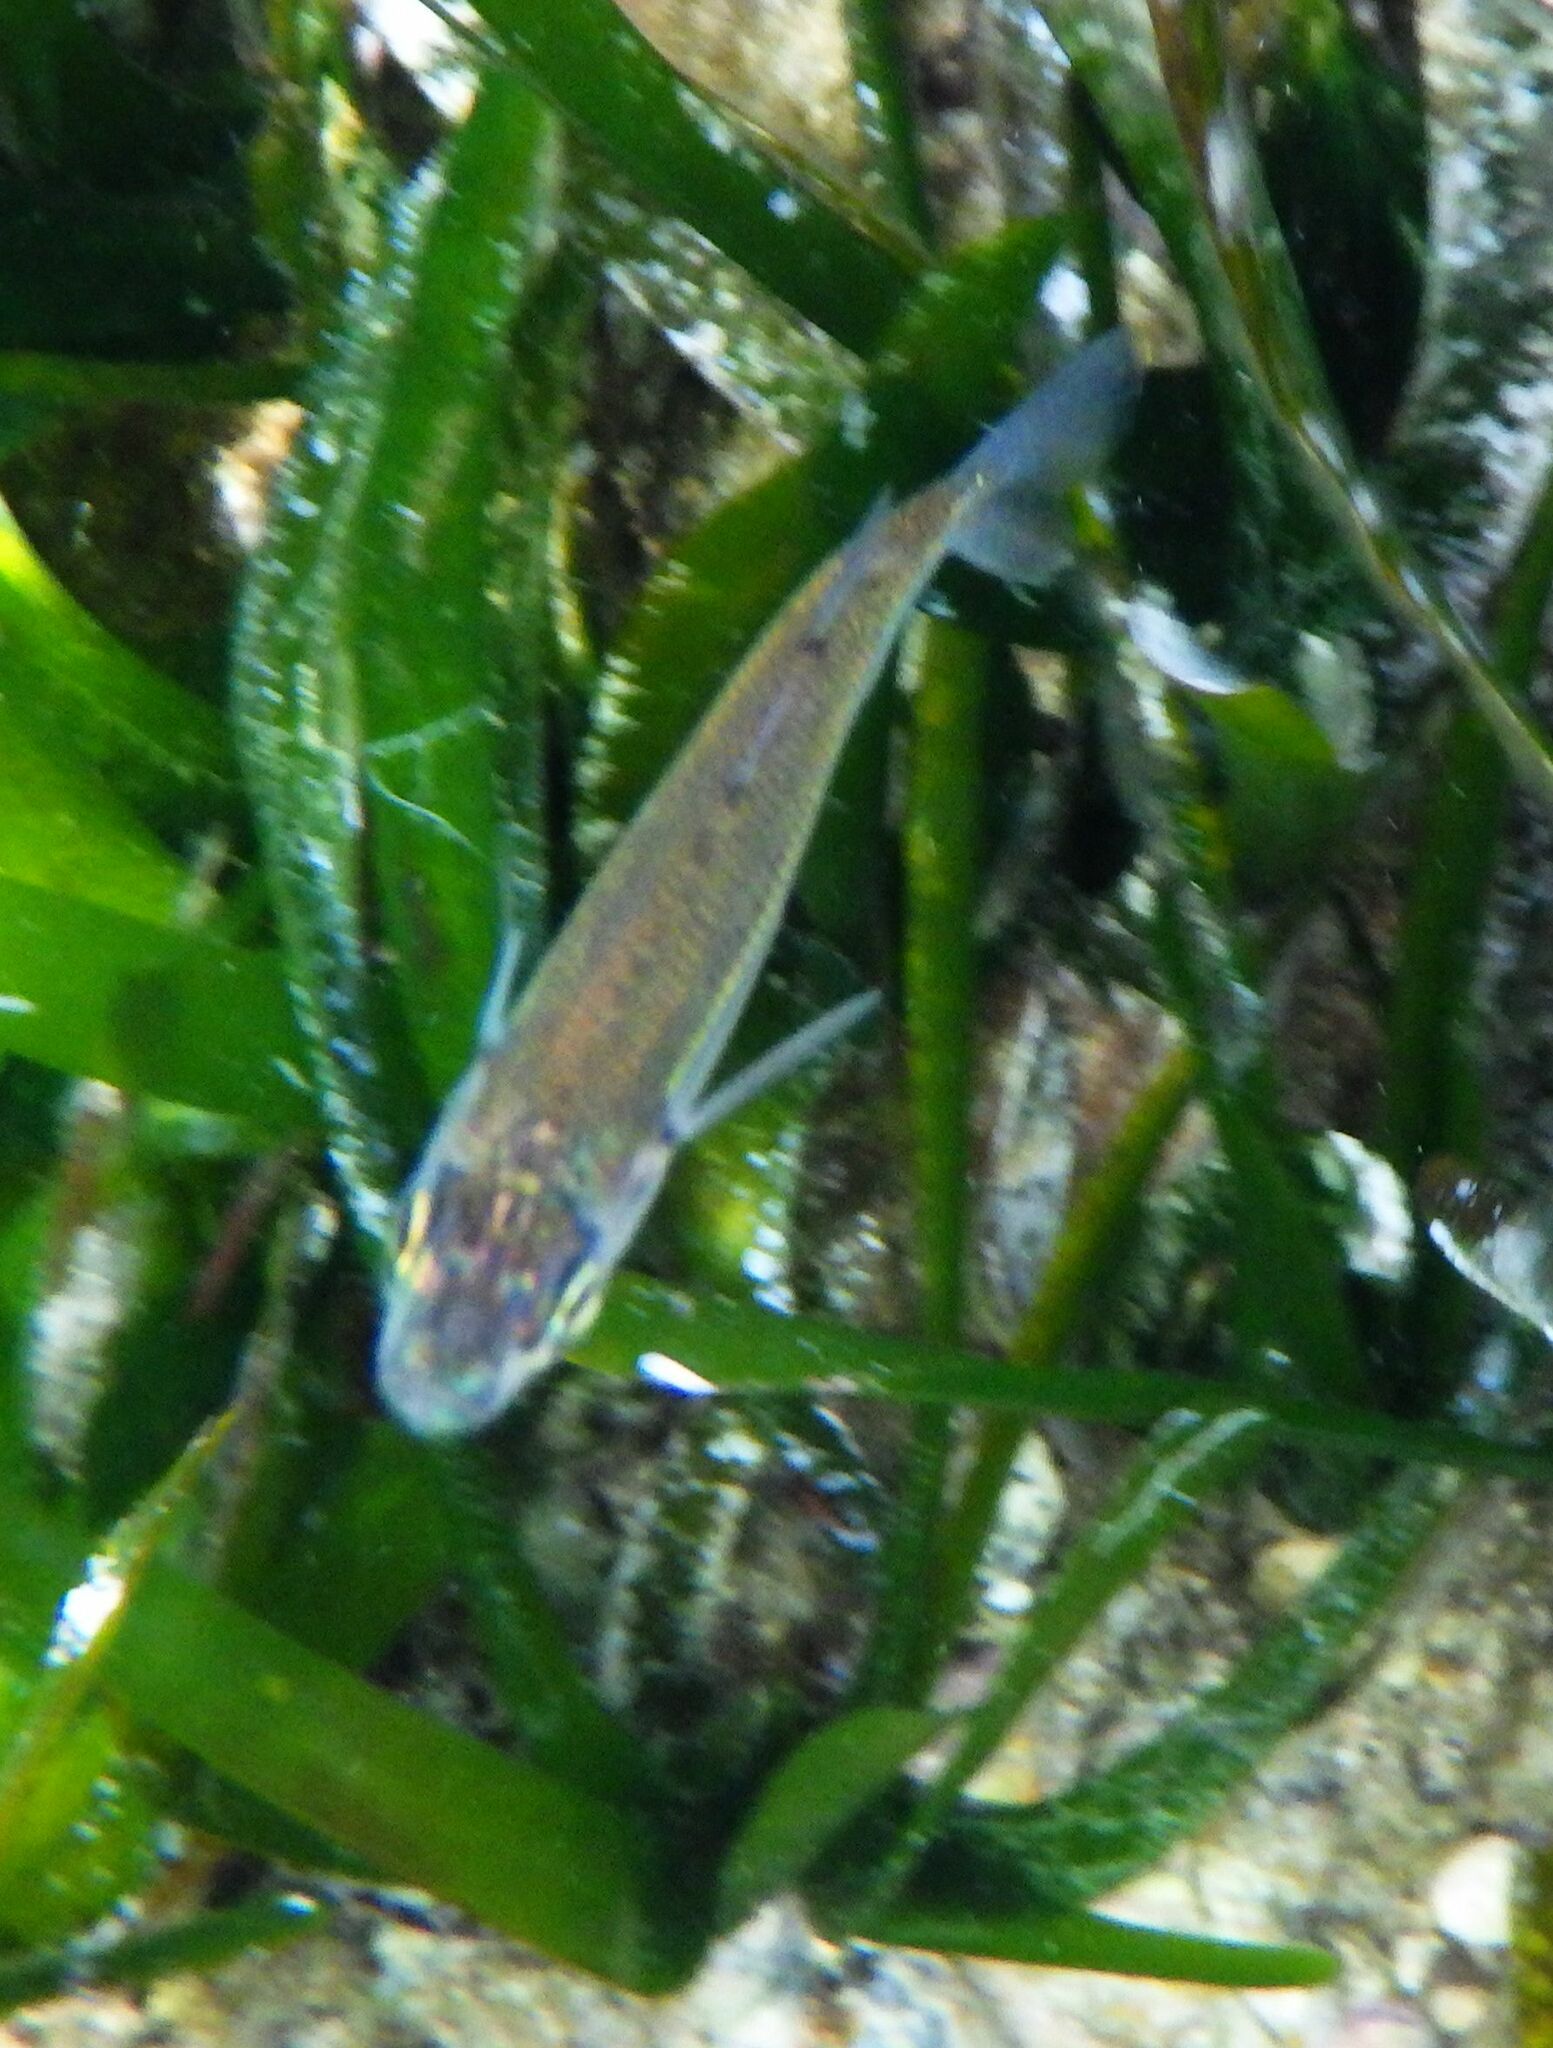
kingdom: Animalia
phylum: Chordata
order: Atheriniformes
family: Atherinidae
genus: Atherina
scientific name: Atherina boyeri
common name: Big-scale sand smelt
